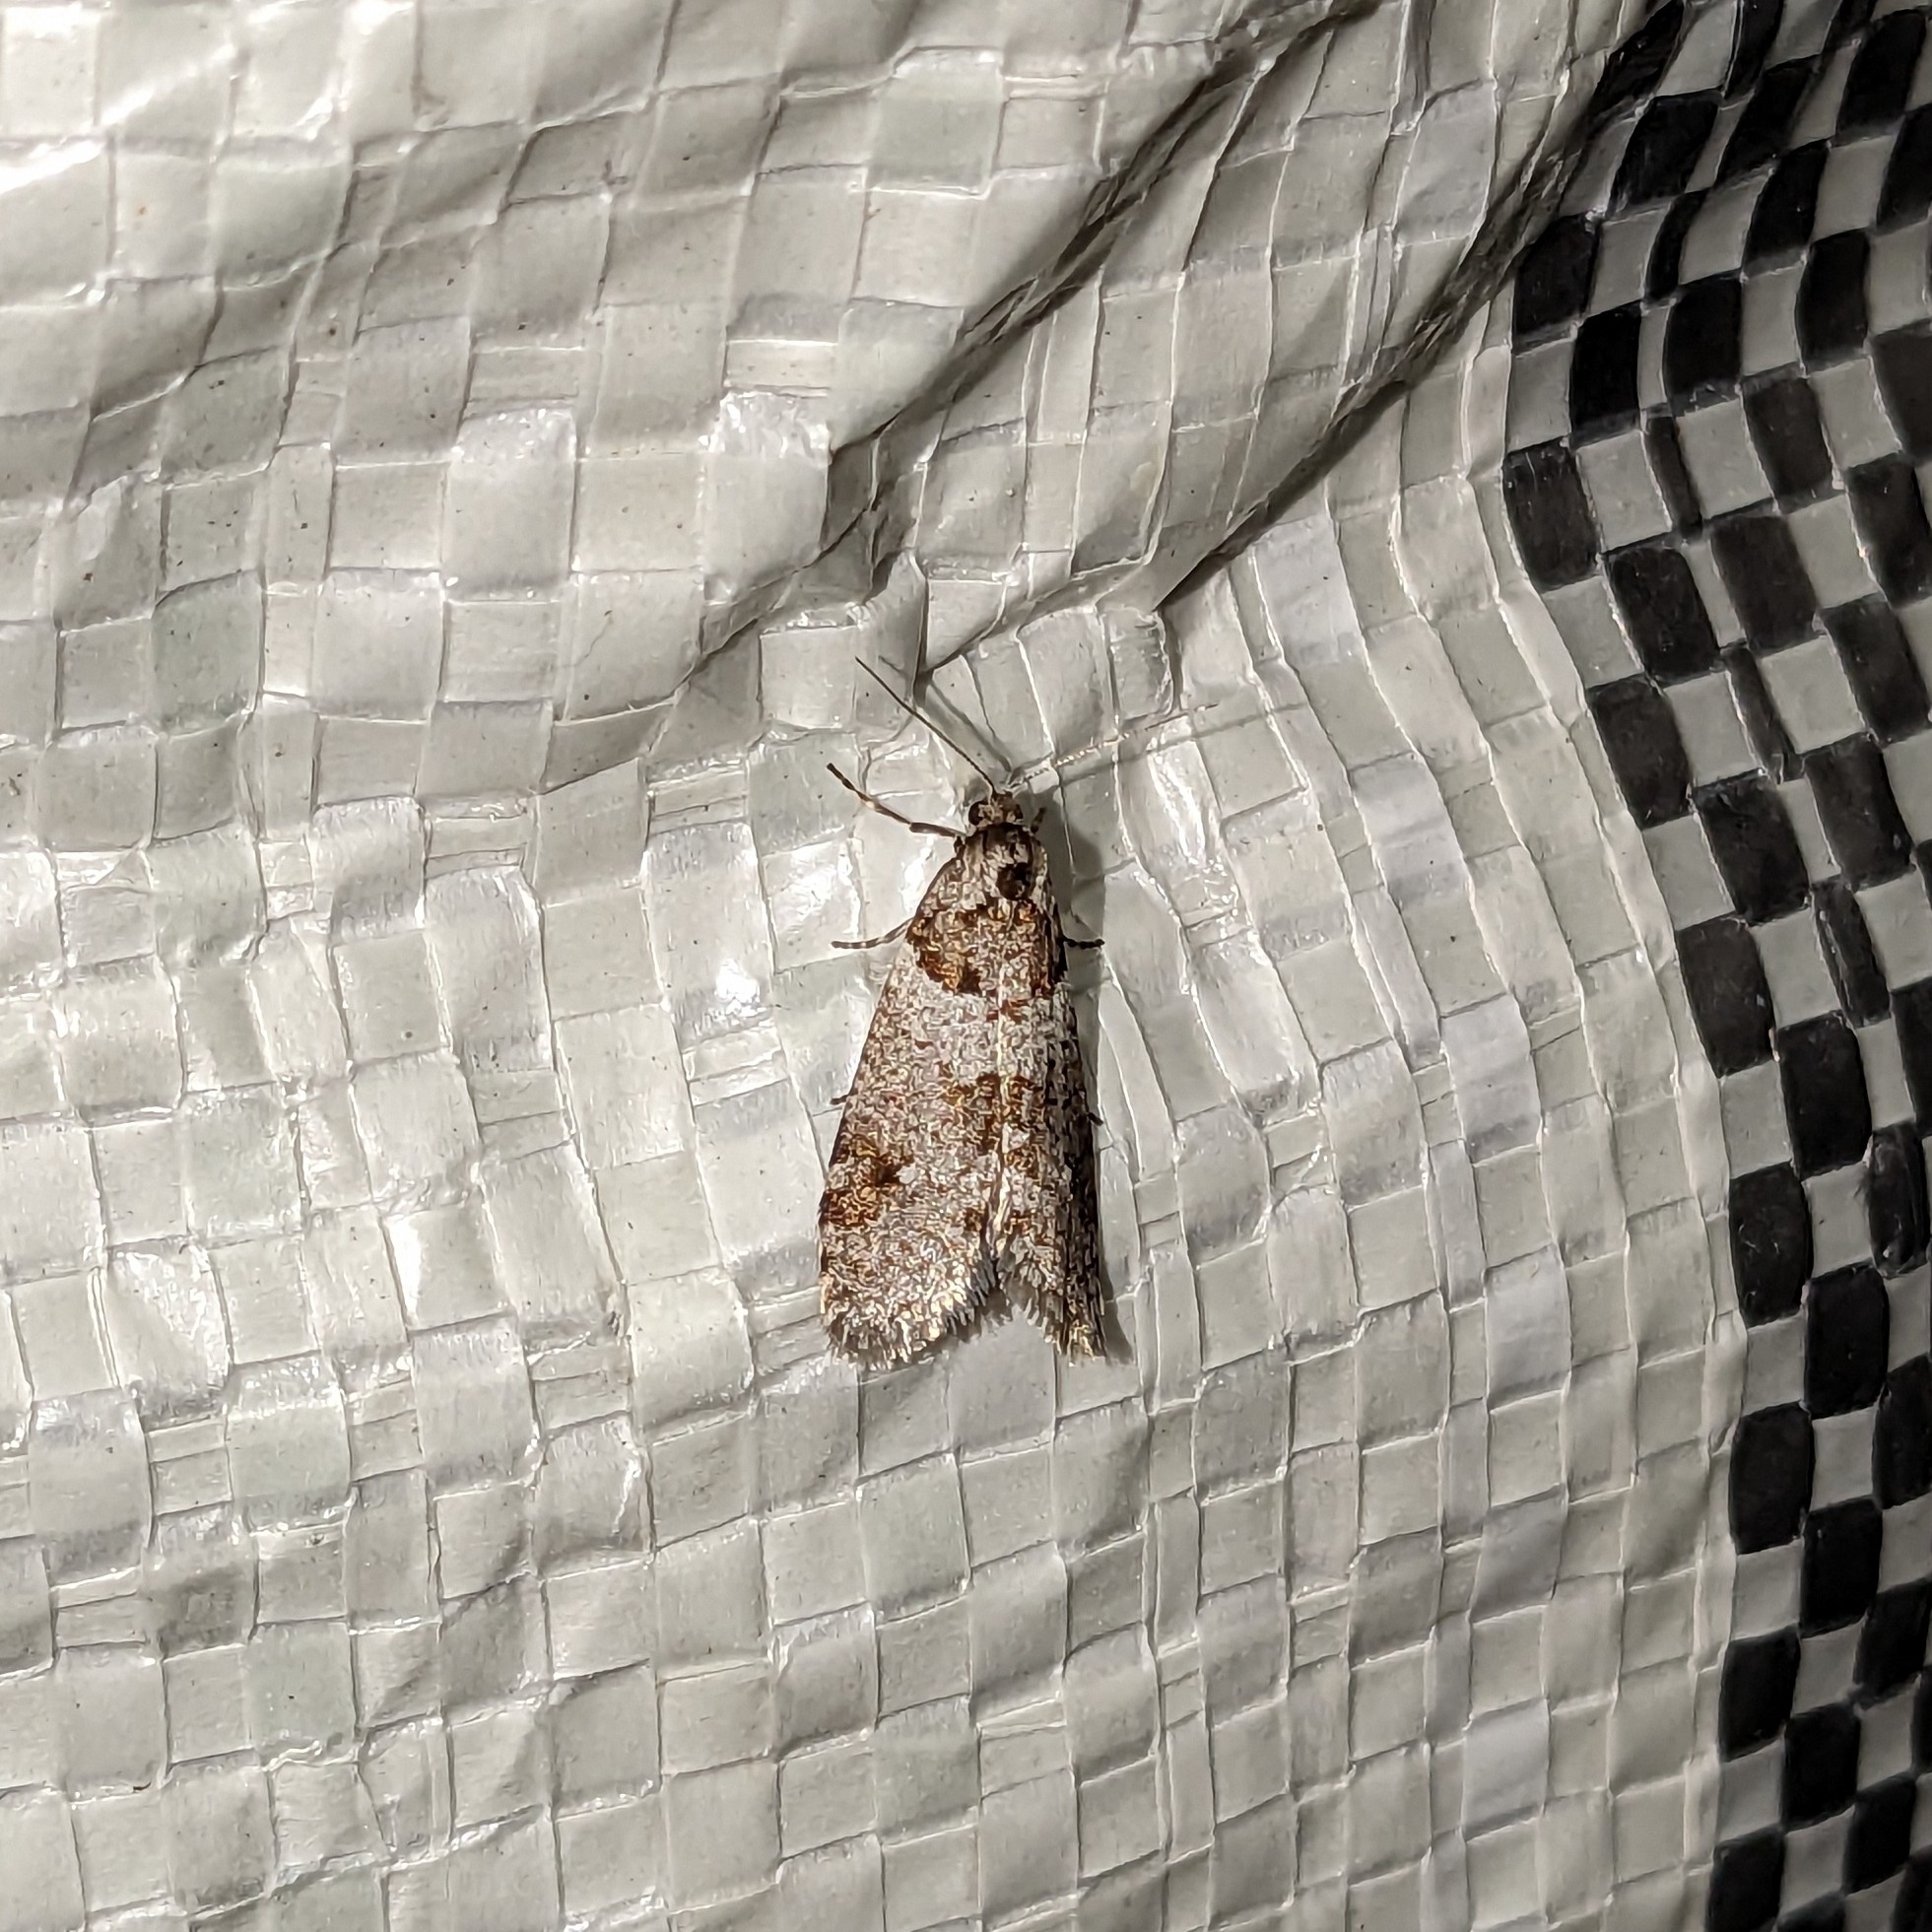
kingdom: Animalia
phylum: Arthropoda
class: Insecta
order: Lepidoptera
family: Psychidae
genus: Lepidoscia
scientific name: Lepidoscia heliochares
